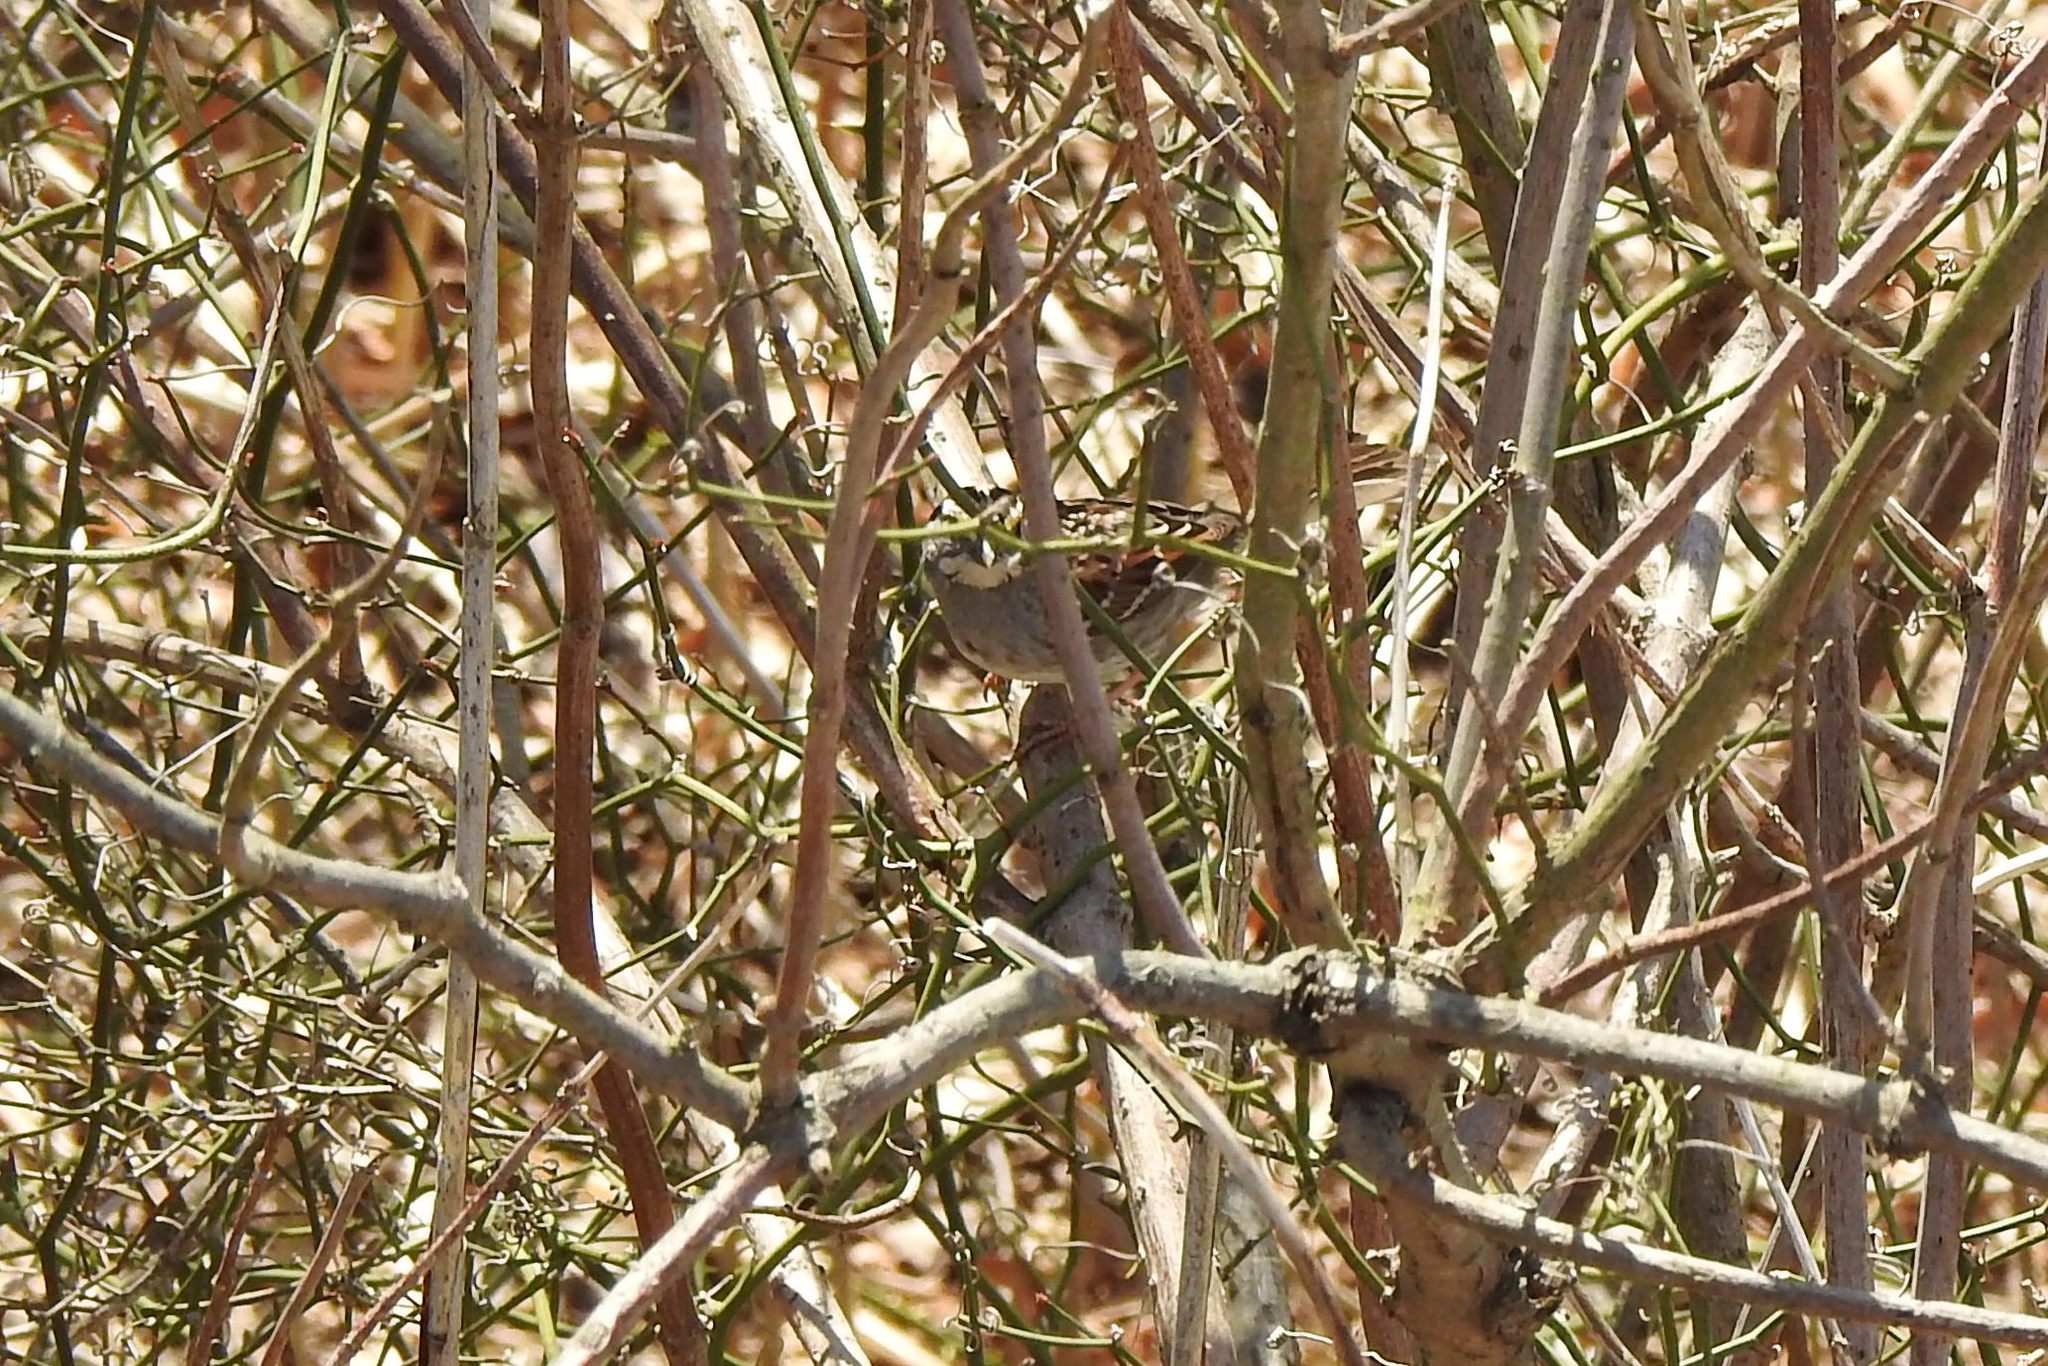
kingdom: Animalia
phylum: Chordata
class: Aves
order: Passeriformes
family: Passerellidae
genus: Zonotrichia
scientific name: Zonotrichia albicollis
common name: White-throated sparrow
